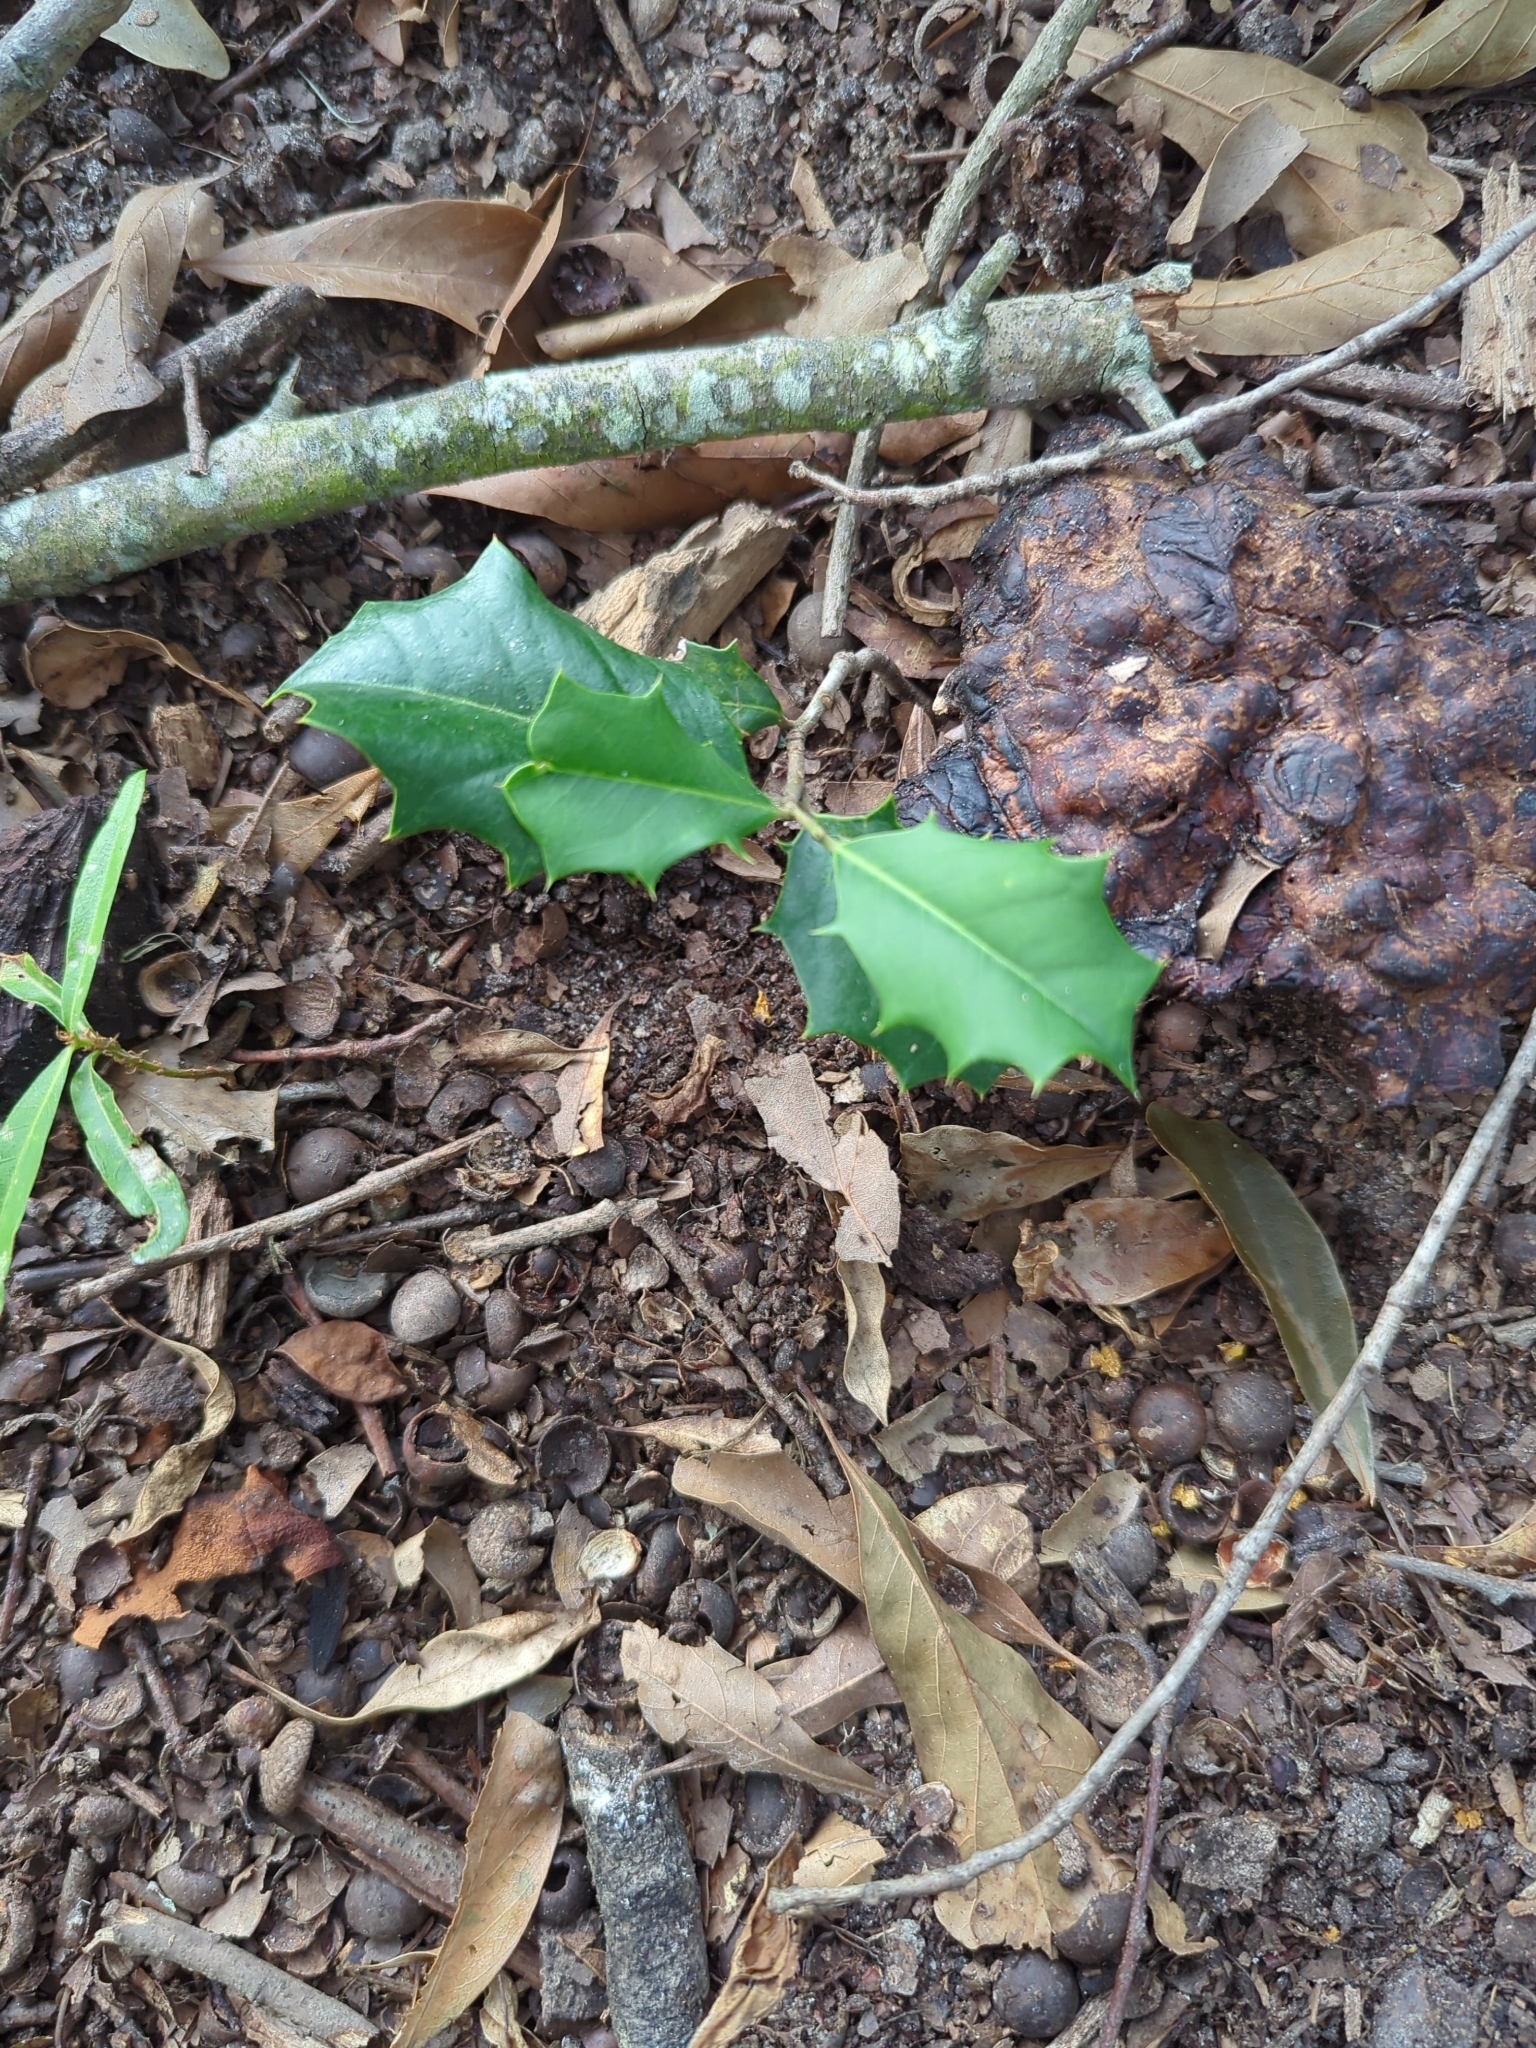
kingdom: Plantae
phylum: Tracheophyta
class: Magnoliopsida
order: Aquifoliales
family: Aquifoliaceae
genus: Ilex
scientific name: Ilex opaca
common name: American holly
